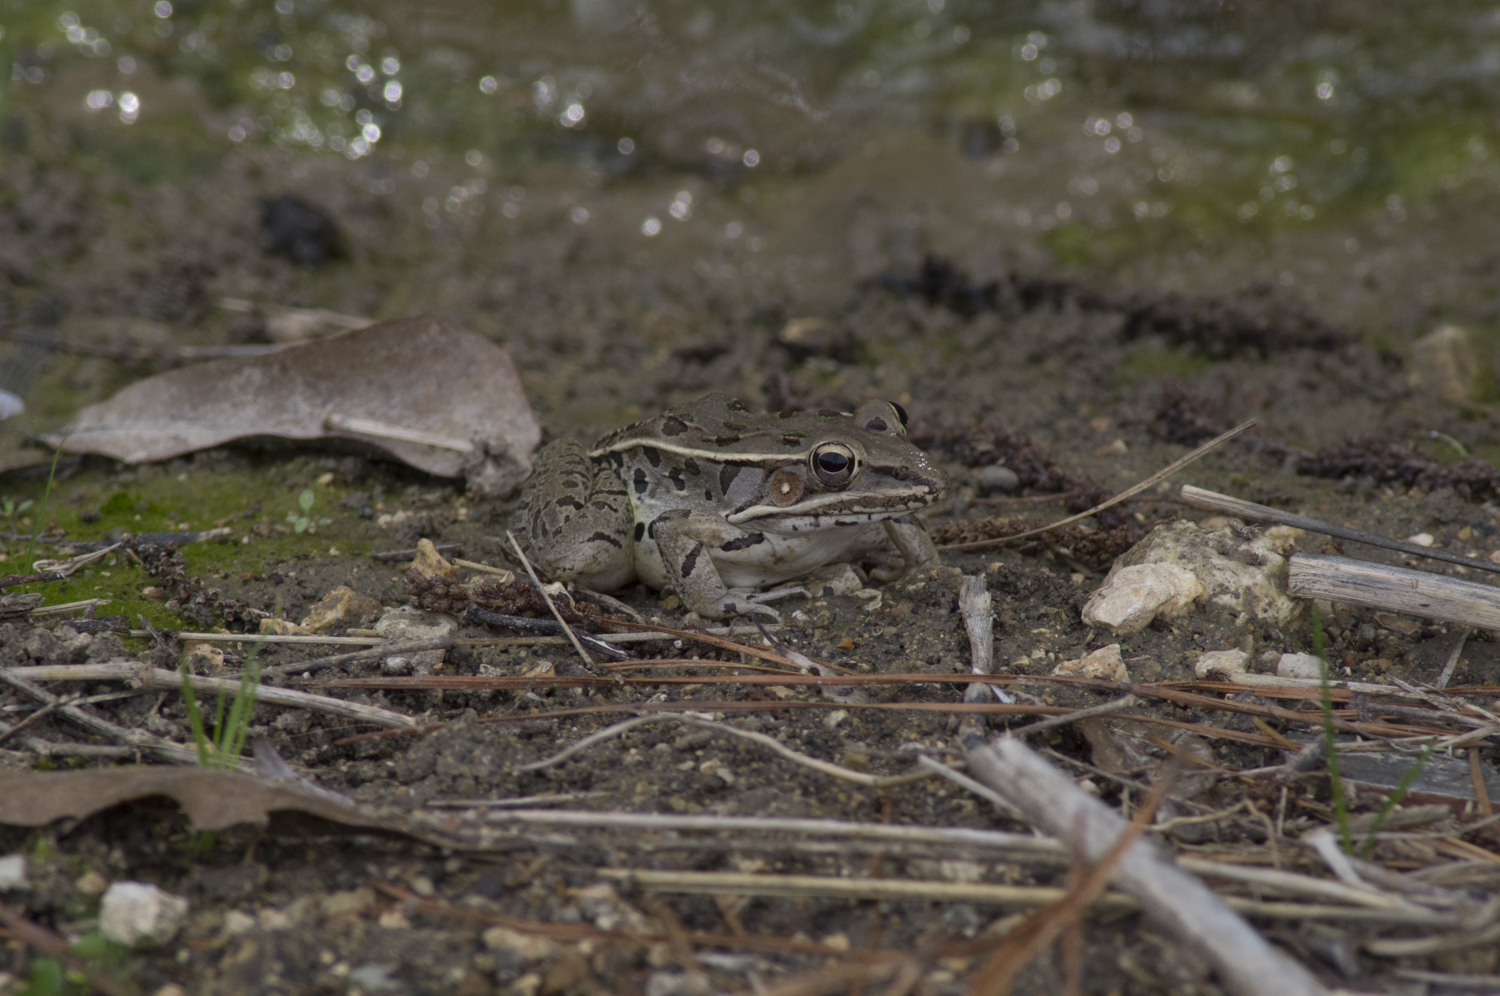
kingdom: Animalia
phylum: Chordata
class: Amphibia
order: Anura
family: Ranidae
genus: Lithobates
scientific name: Lithobates sphenocephalus
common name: Southern leopard frog
